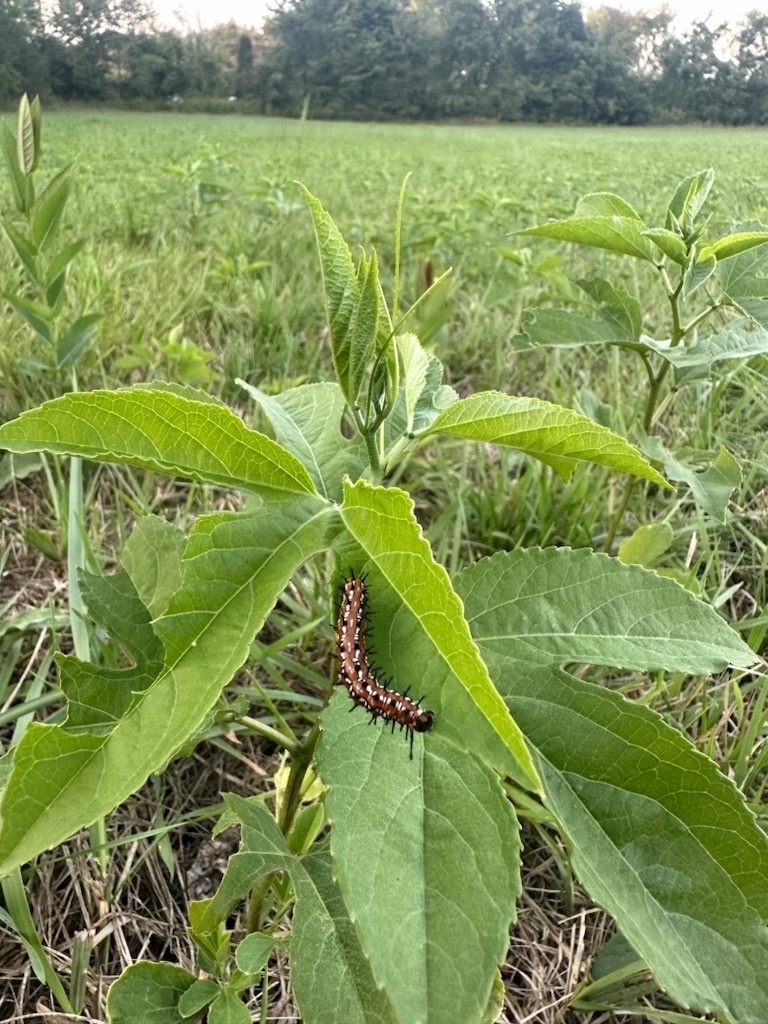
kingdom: Animalia
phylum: Arthropoda
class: Insecta
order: Lepidoptera
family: Nymphalidae
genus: Euptoieta
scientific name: Euptoieta claudia
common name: Variegated fritillary
